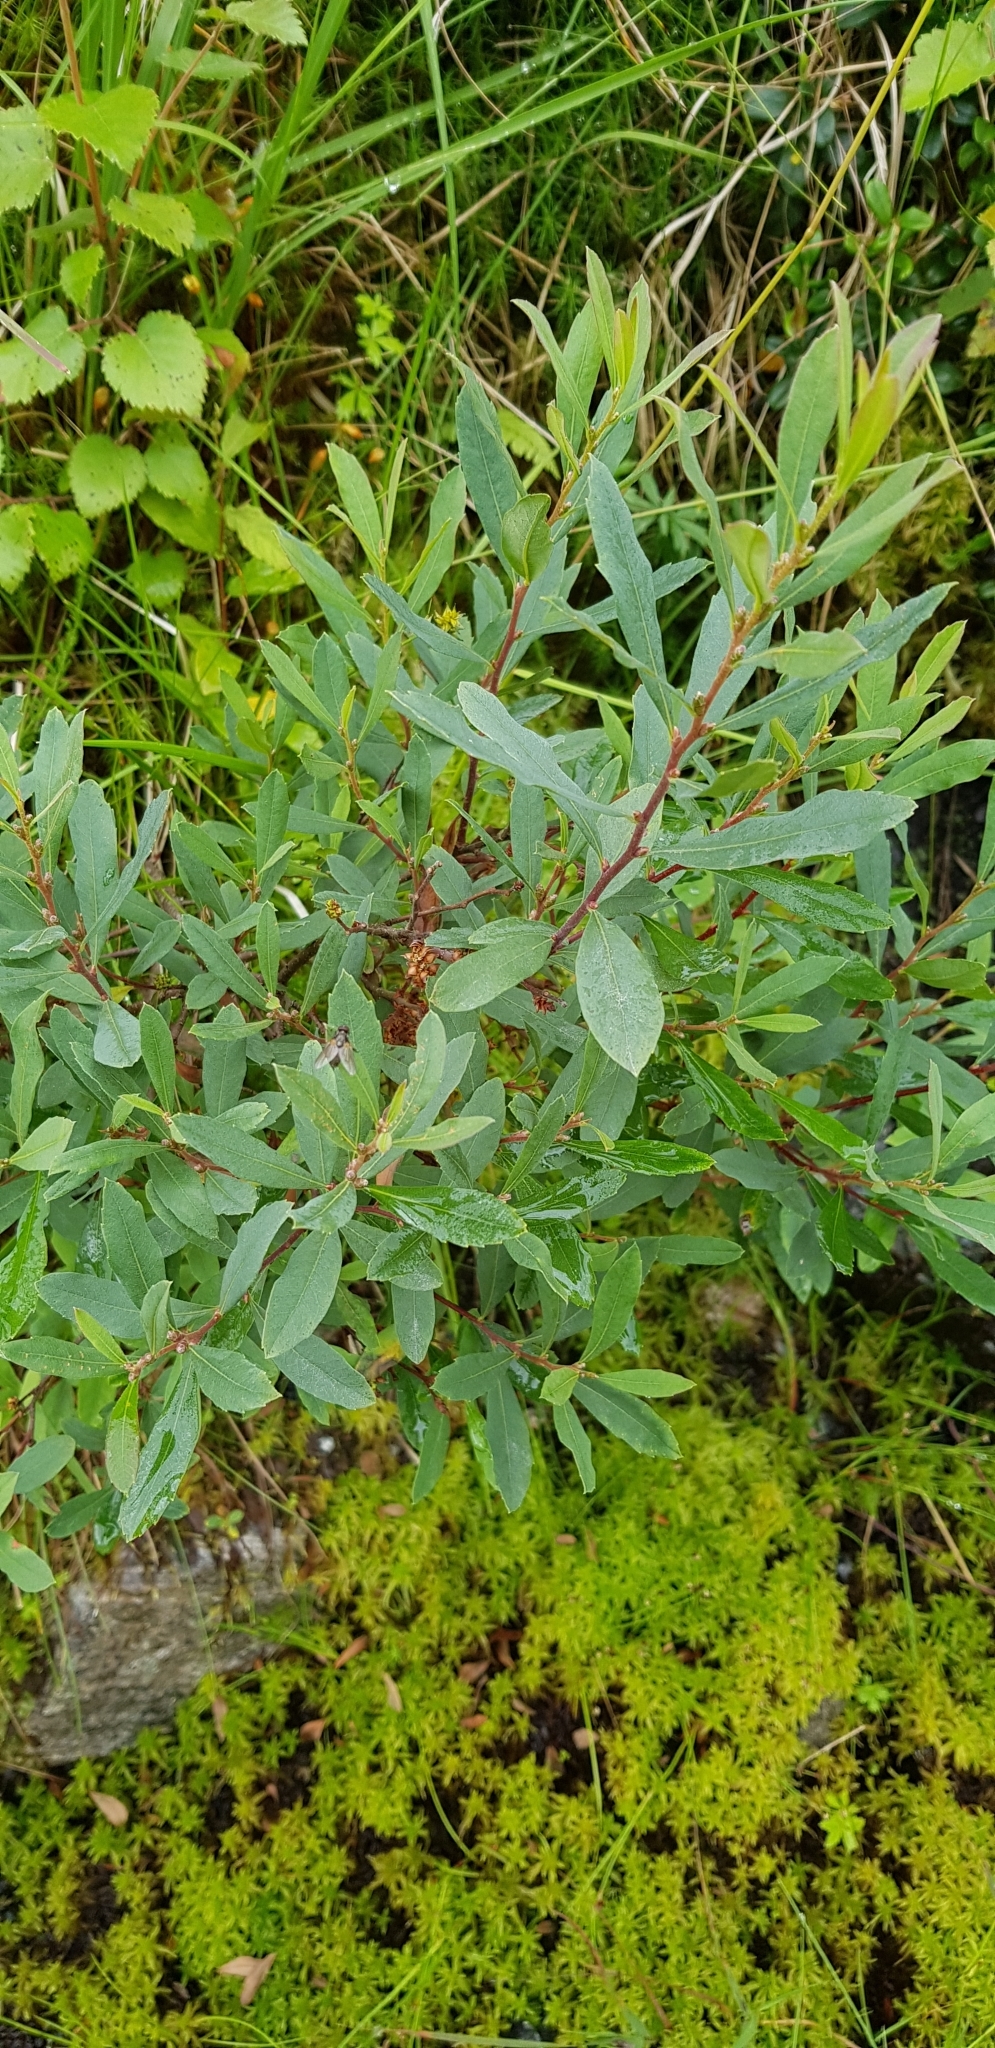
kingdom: Plantae
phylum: Tracheophyta
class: Magnoliopsida
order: Fagales
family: Myricaceae
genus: Myrica
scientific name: Myrica gale
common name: Sweet gale
